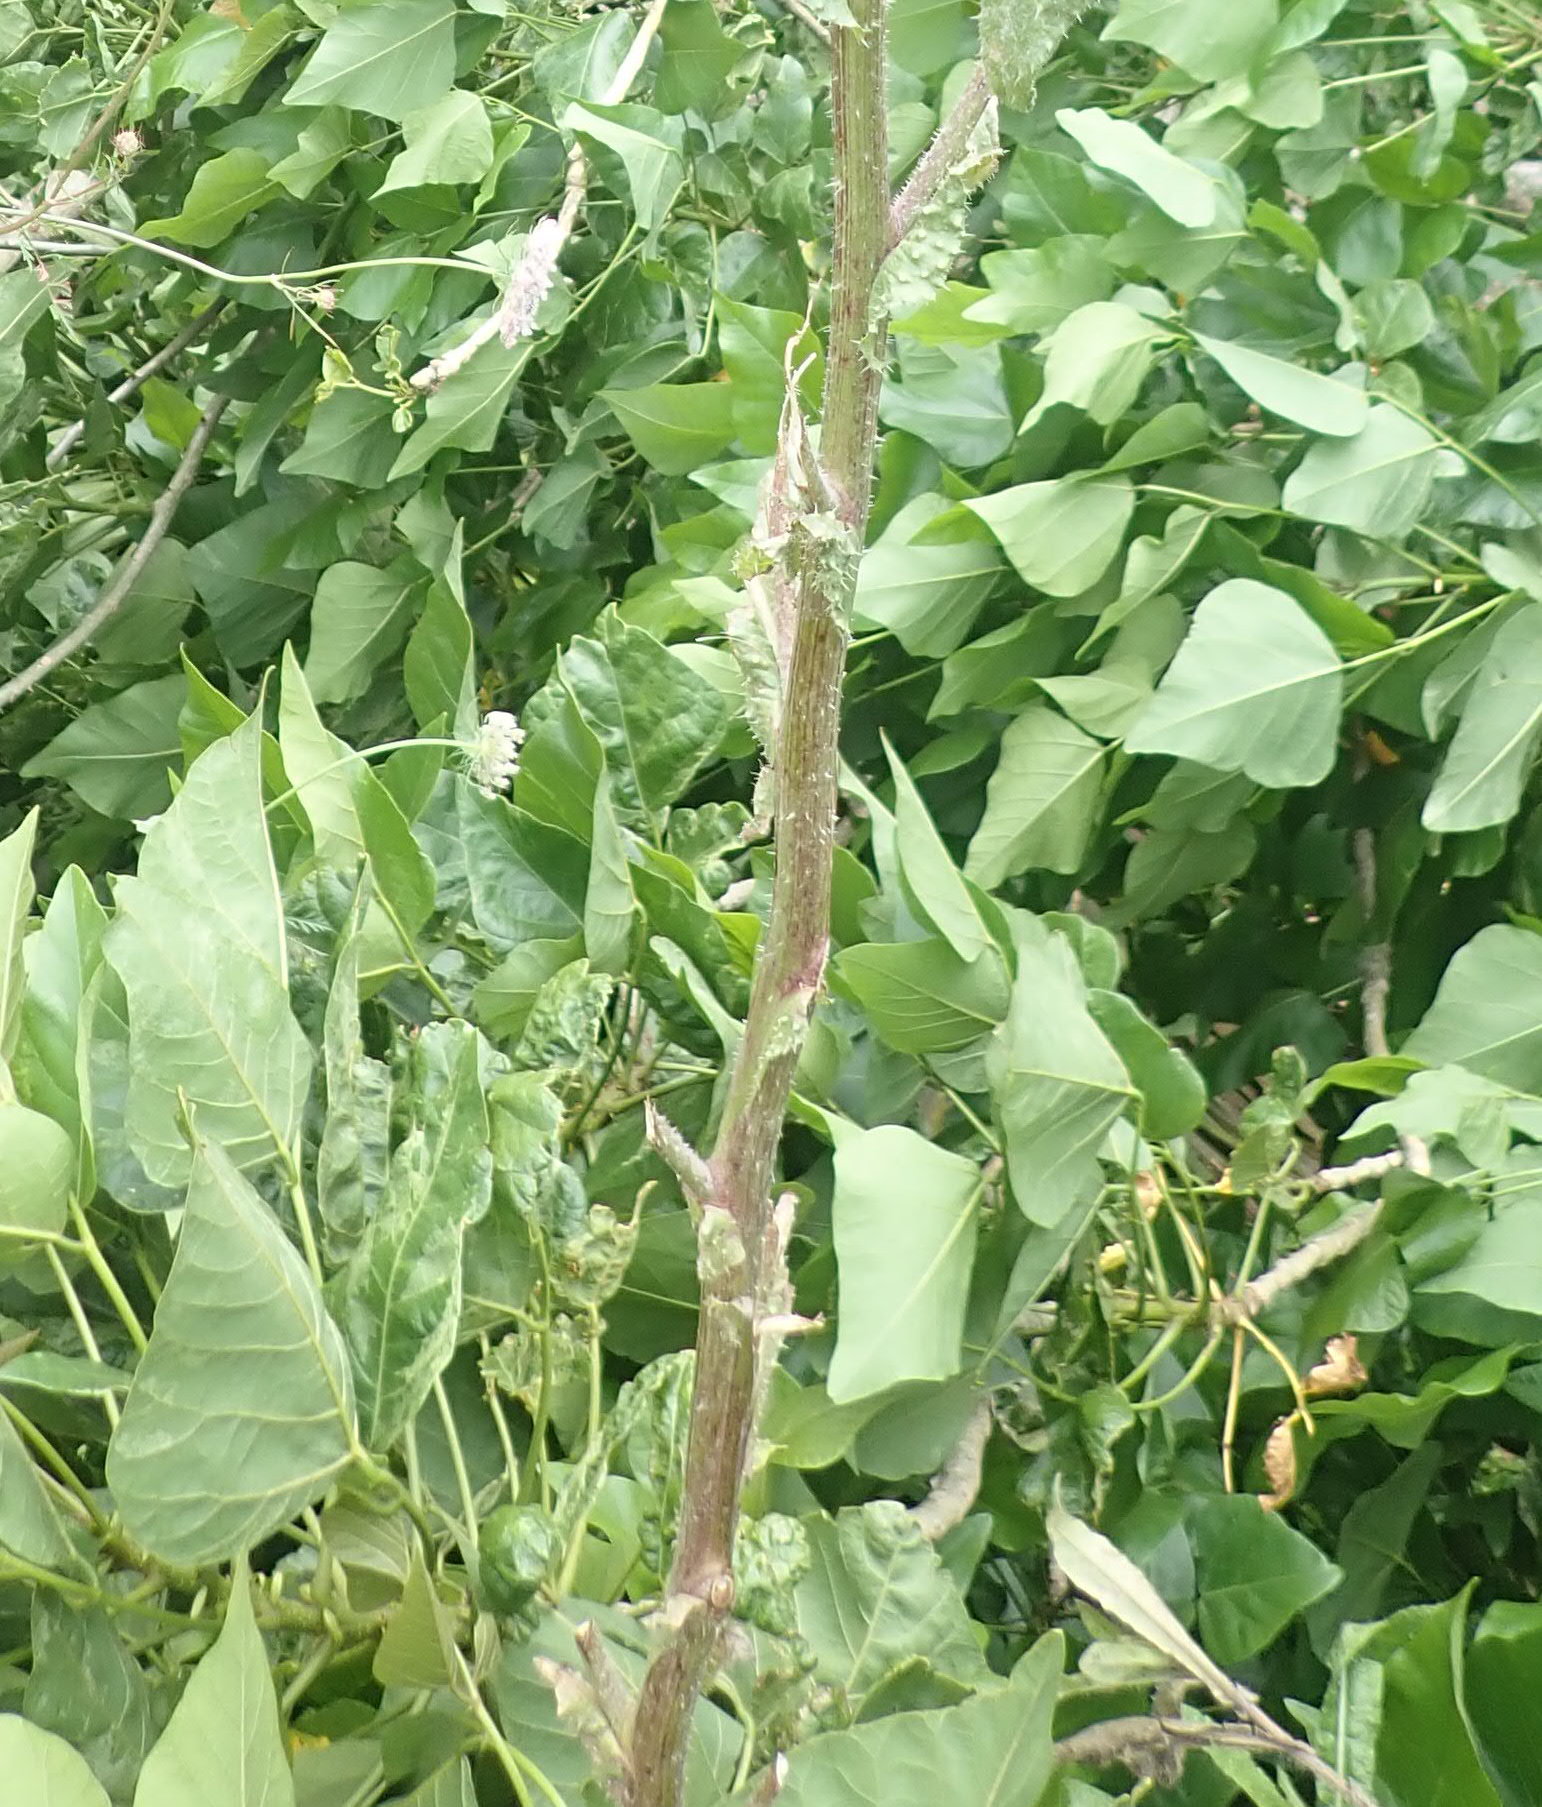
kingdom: Plantae
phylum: Tracheophyta
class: Magnoliopsida
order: Asterales
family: Asteraceae
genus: Helminthotheca
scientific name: Helminthotheca echioides
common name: Ox-tongue
